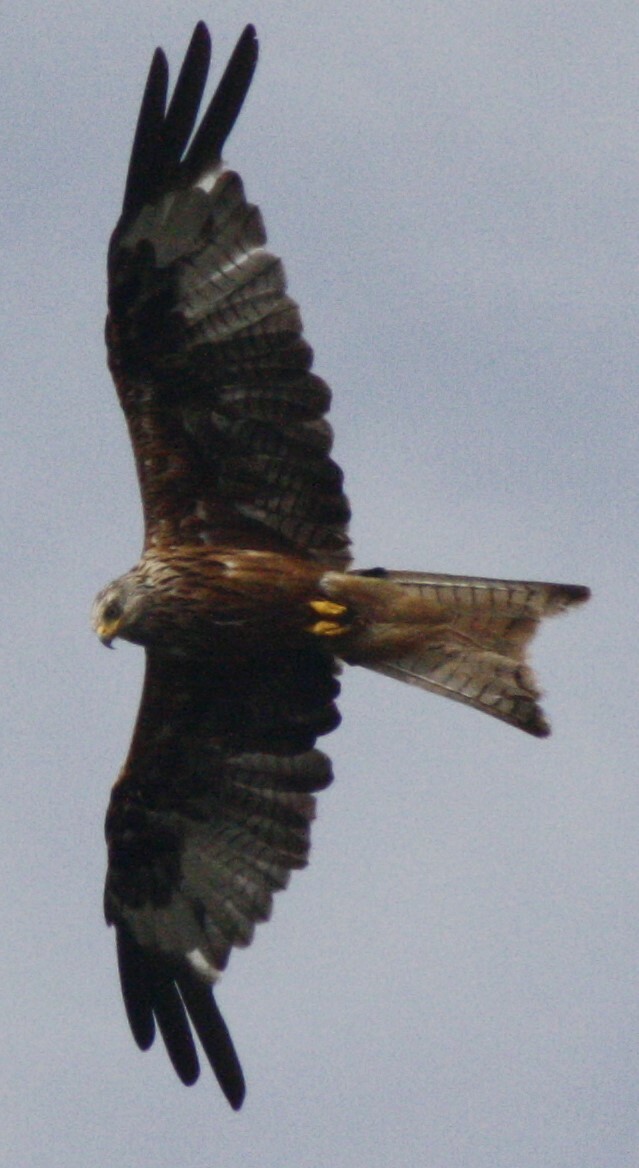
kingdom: Animalia
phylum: Chordata
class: Aves
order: Accipitriformes
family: Accipitridae
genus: Milvus
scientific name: Milvus milvus
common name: Red kite
